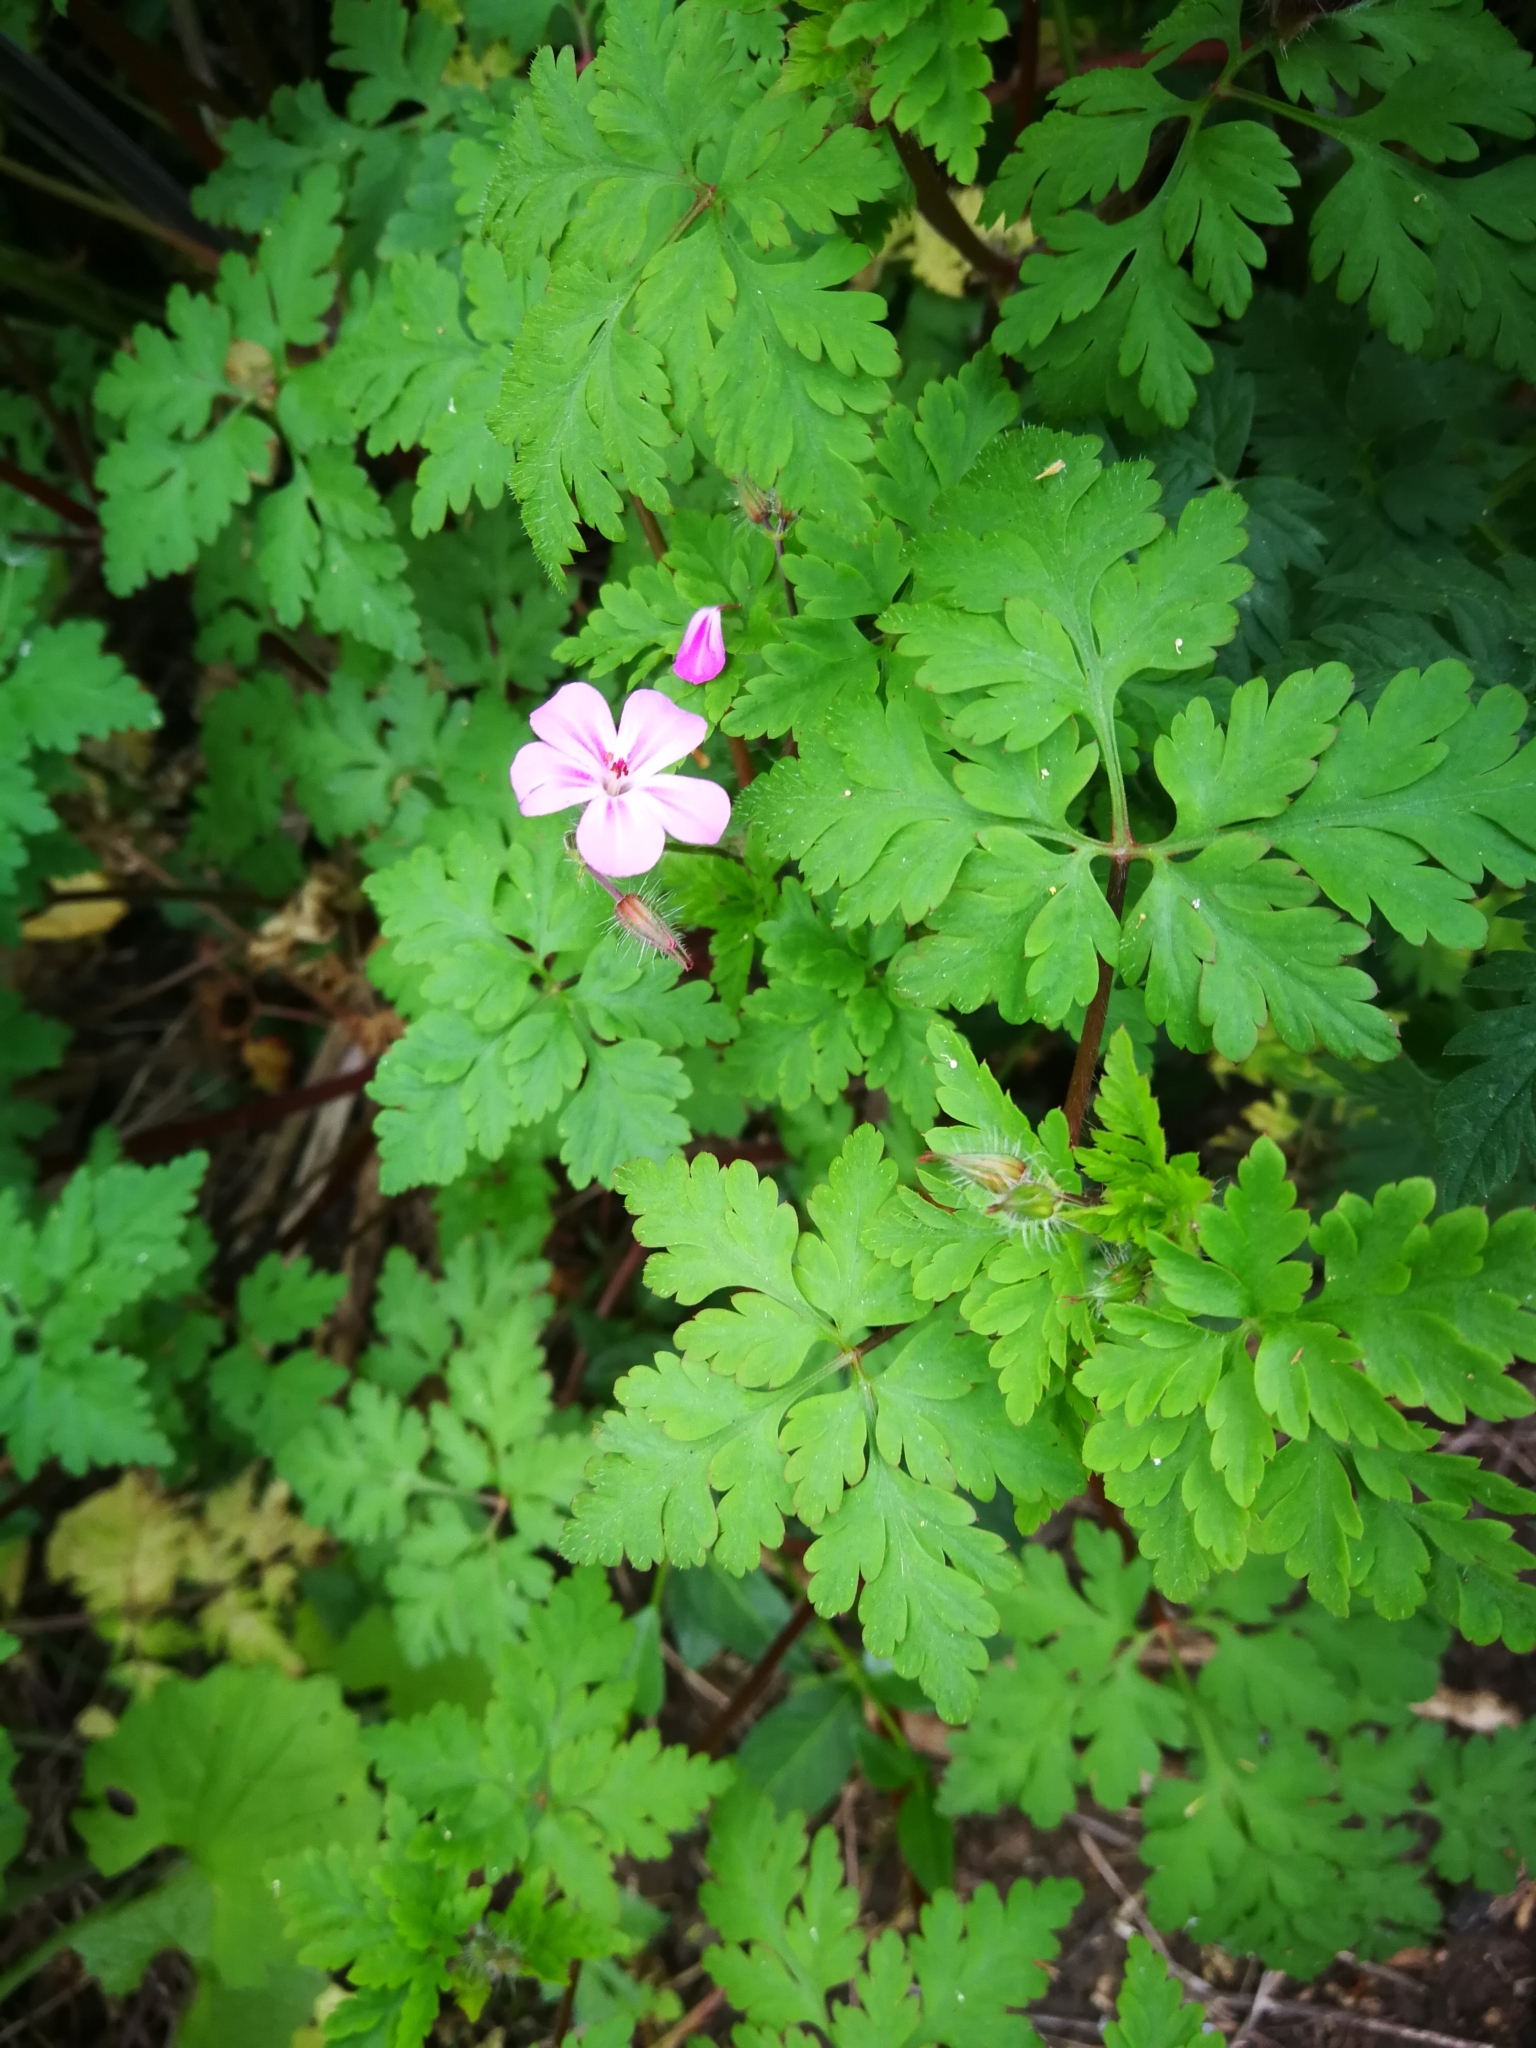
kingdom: Plantae
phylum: Tracheophyta
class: Magnoliopsida
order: Geraniales
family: Geraniaceae
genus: Geranium
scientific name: Geranium robertianum
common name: Herb-robert
